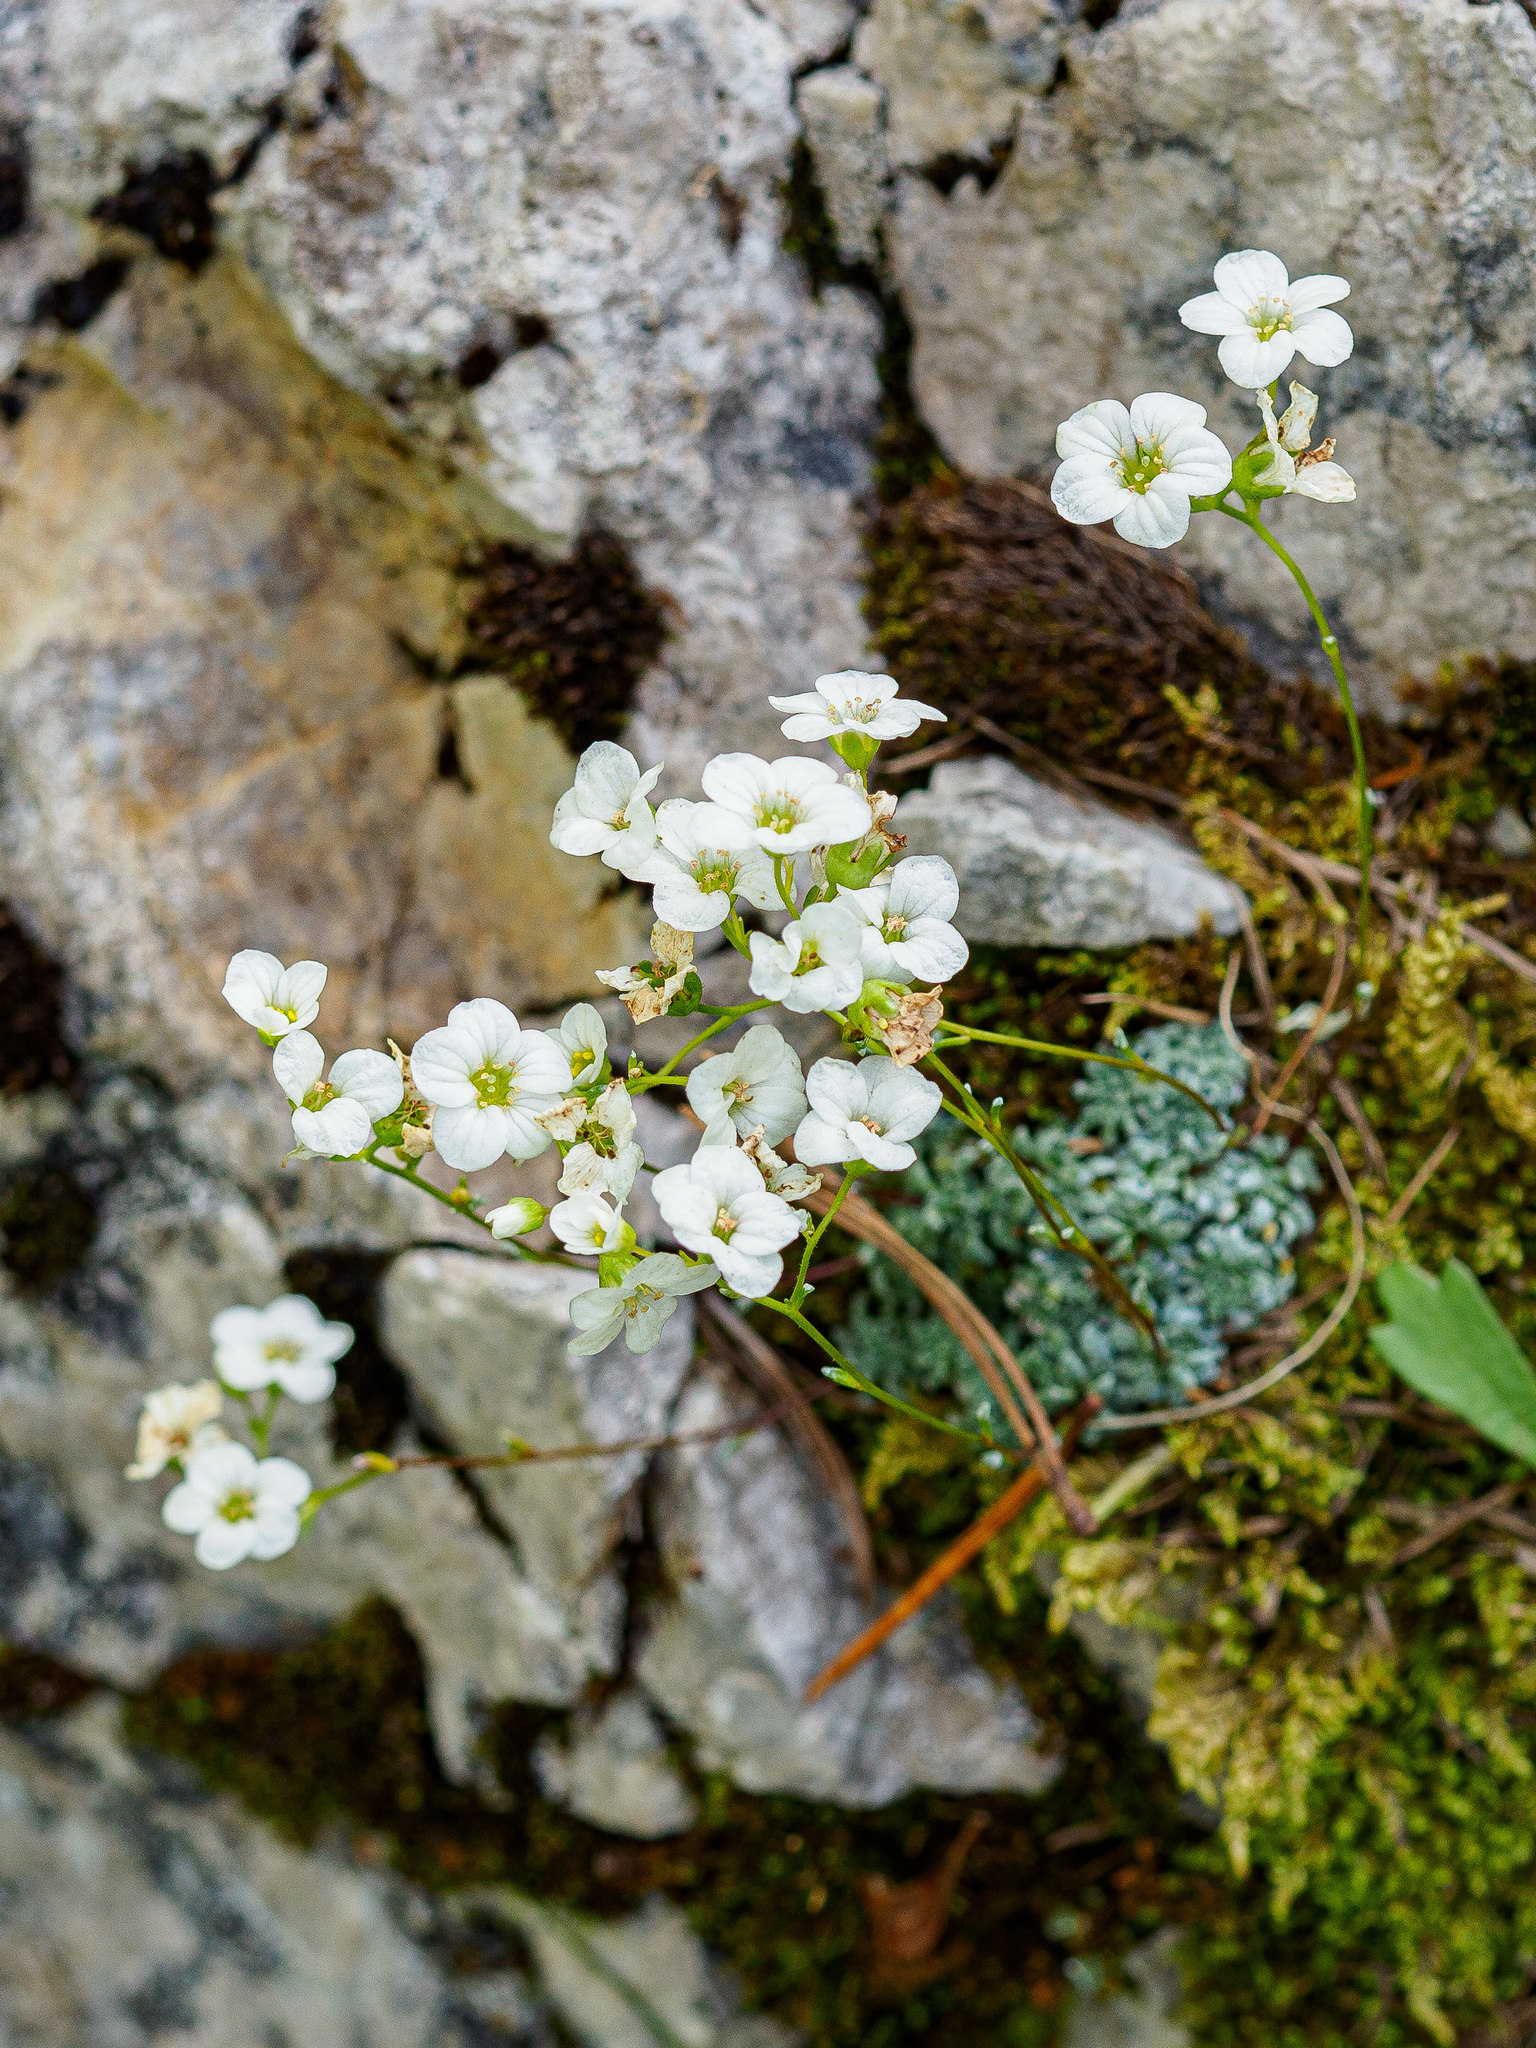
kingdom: Plantae
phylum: Tracheophyta
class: Magnoliopsida
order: Saxifragales
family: Saxifragaceae
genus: Saxifraga
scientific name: Saxifraga caesia
